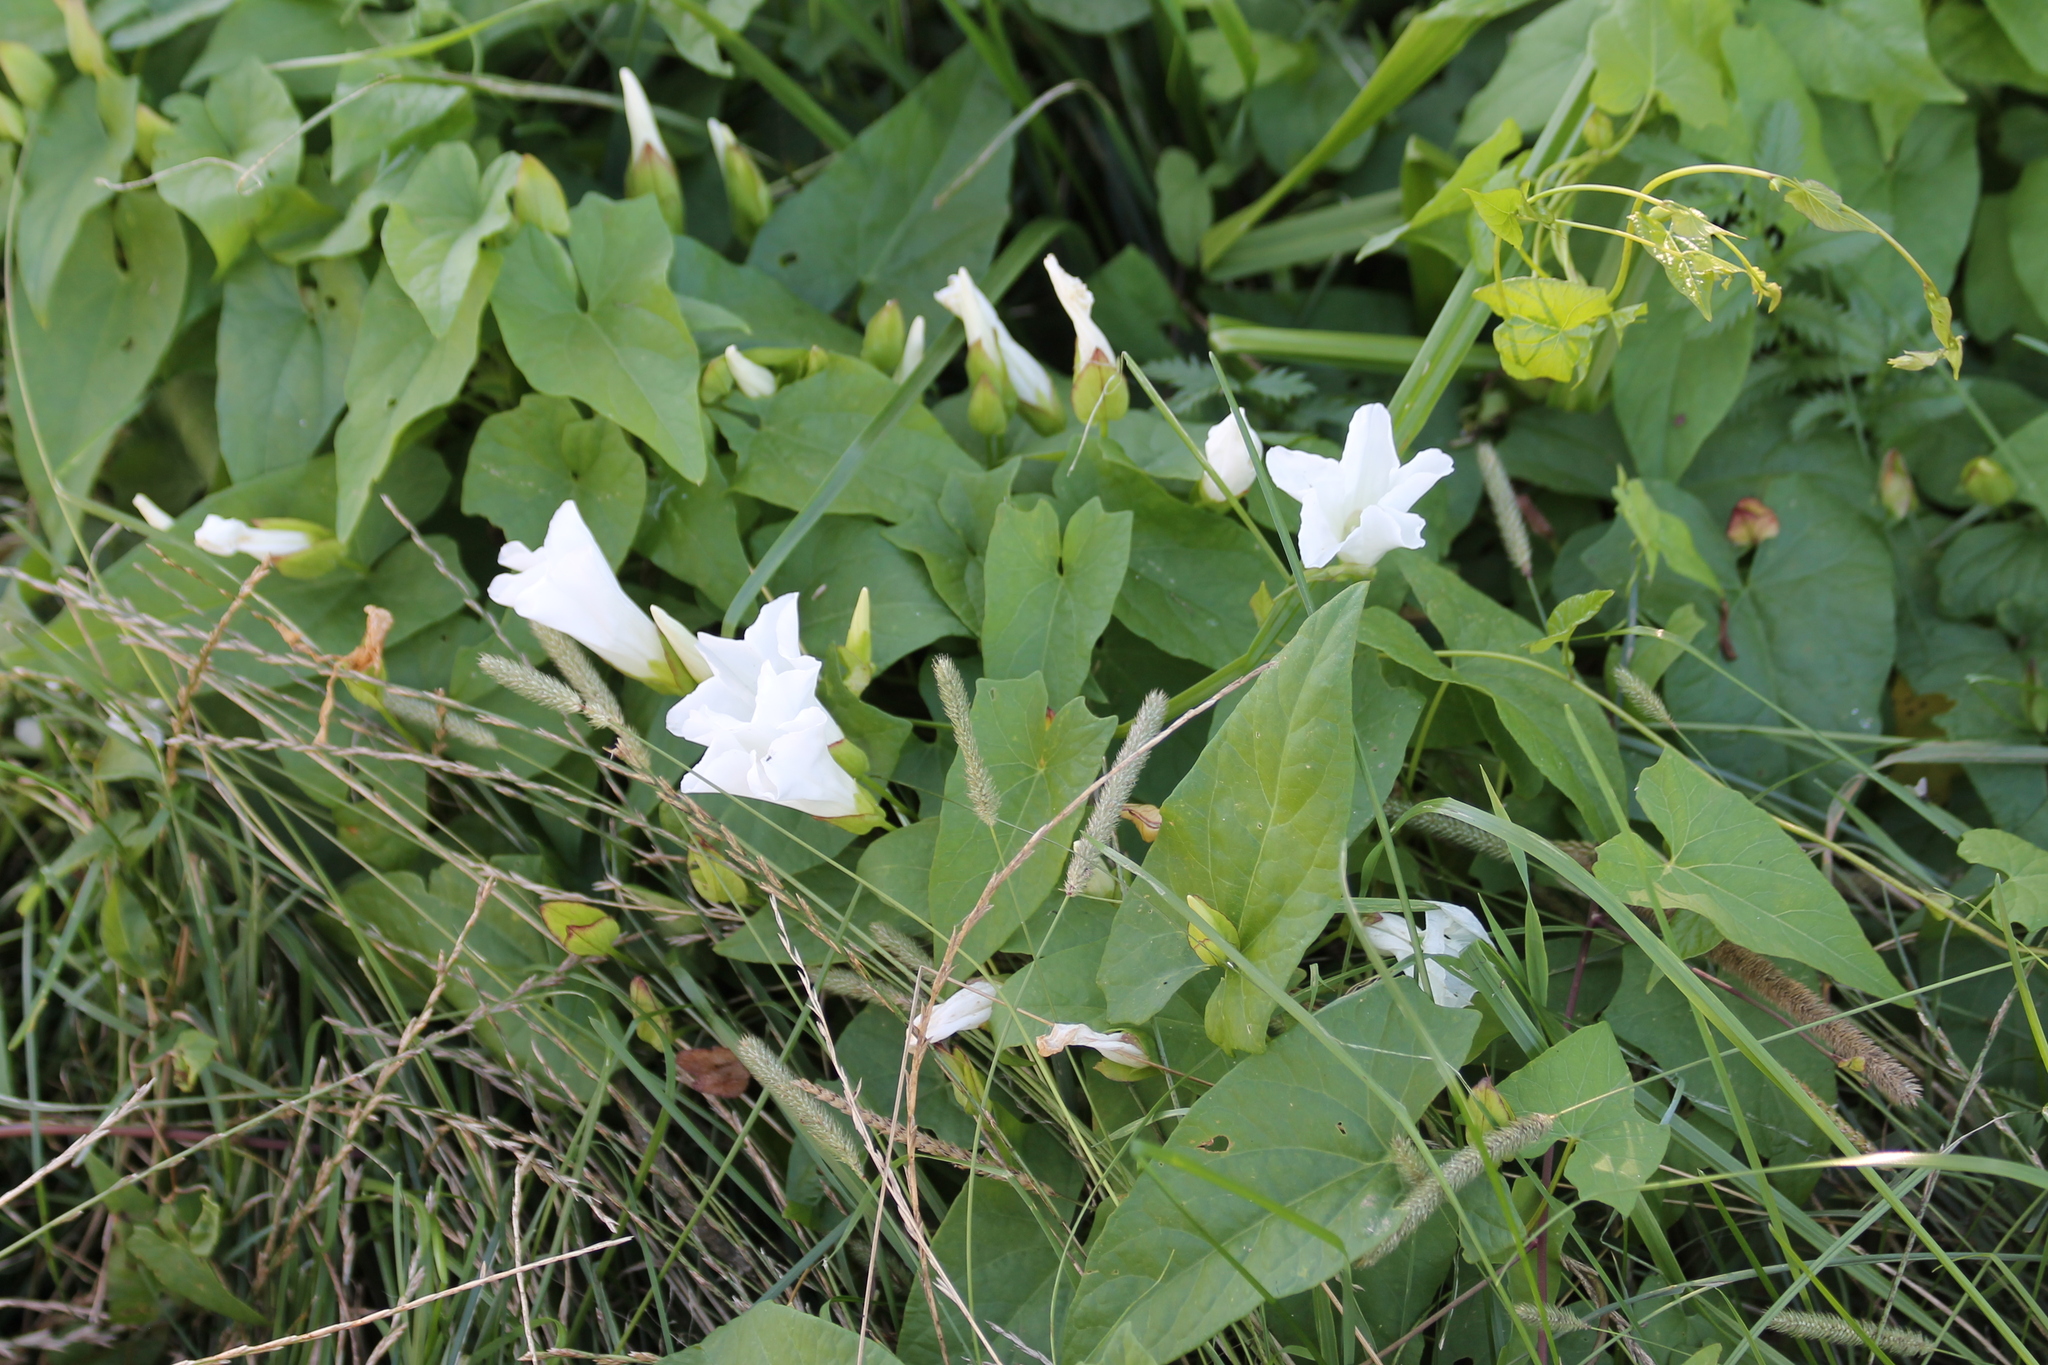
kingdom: Plantae
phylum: Tracheophyta
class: Magnoliopsida
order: Solanales
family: Convolvulaceae
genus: Calystegia
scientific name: Calystegia sepium
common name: Hedge bindweed
